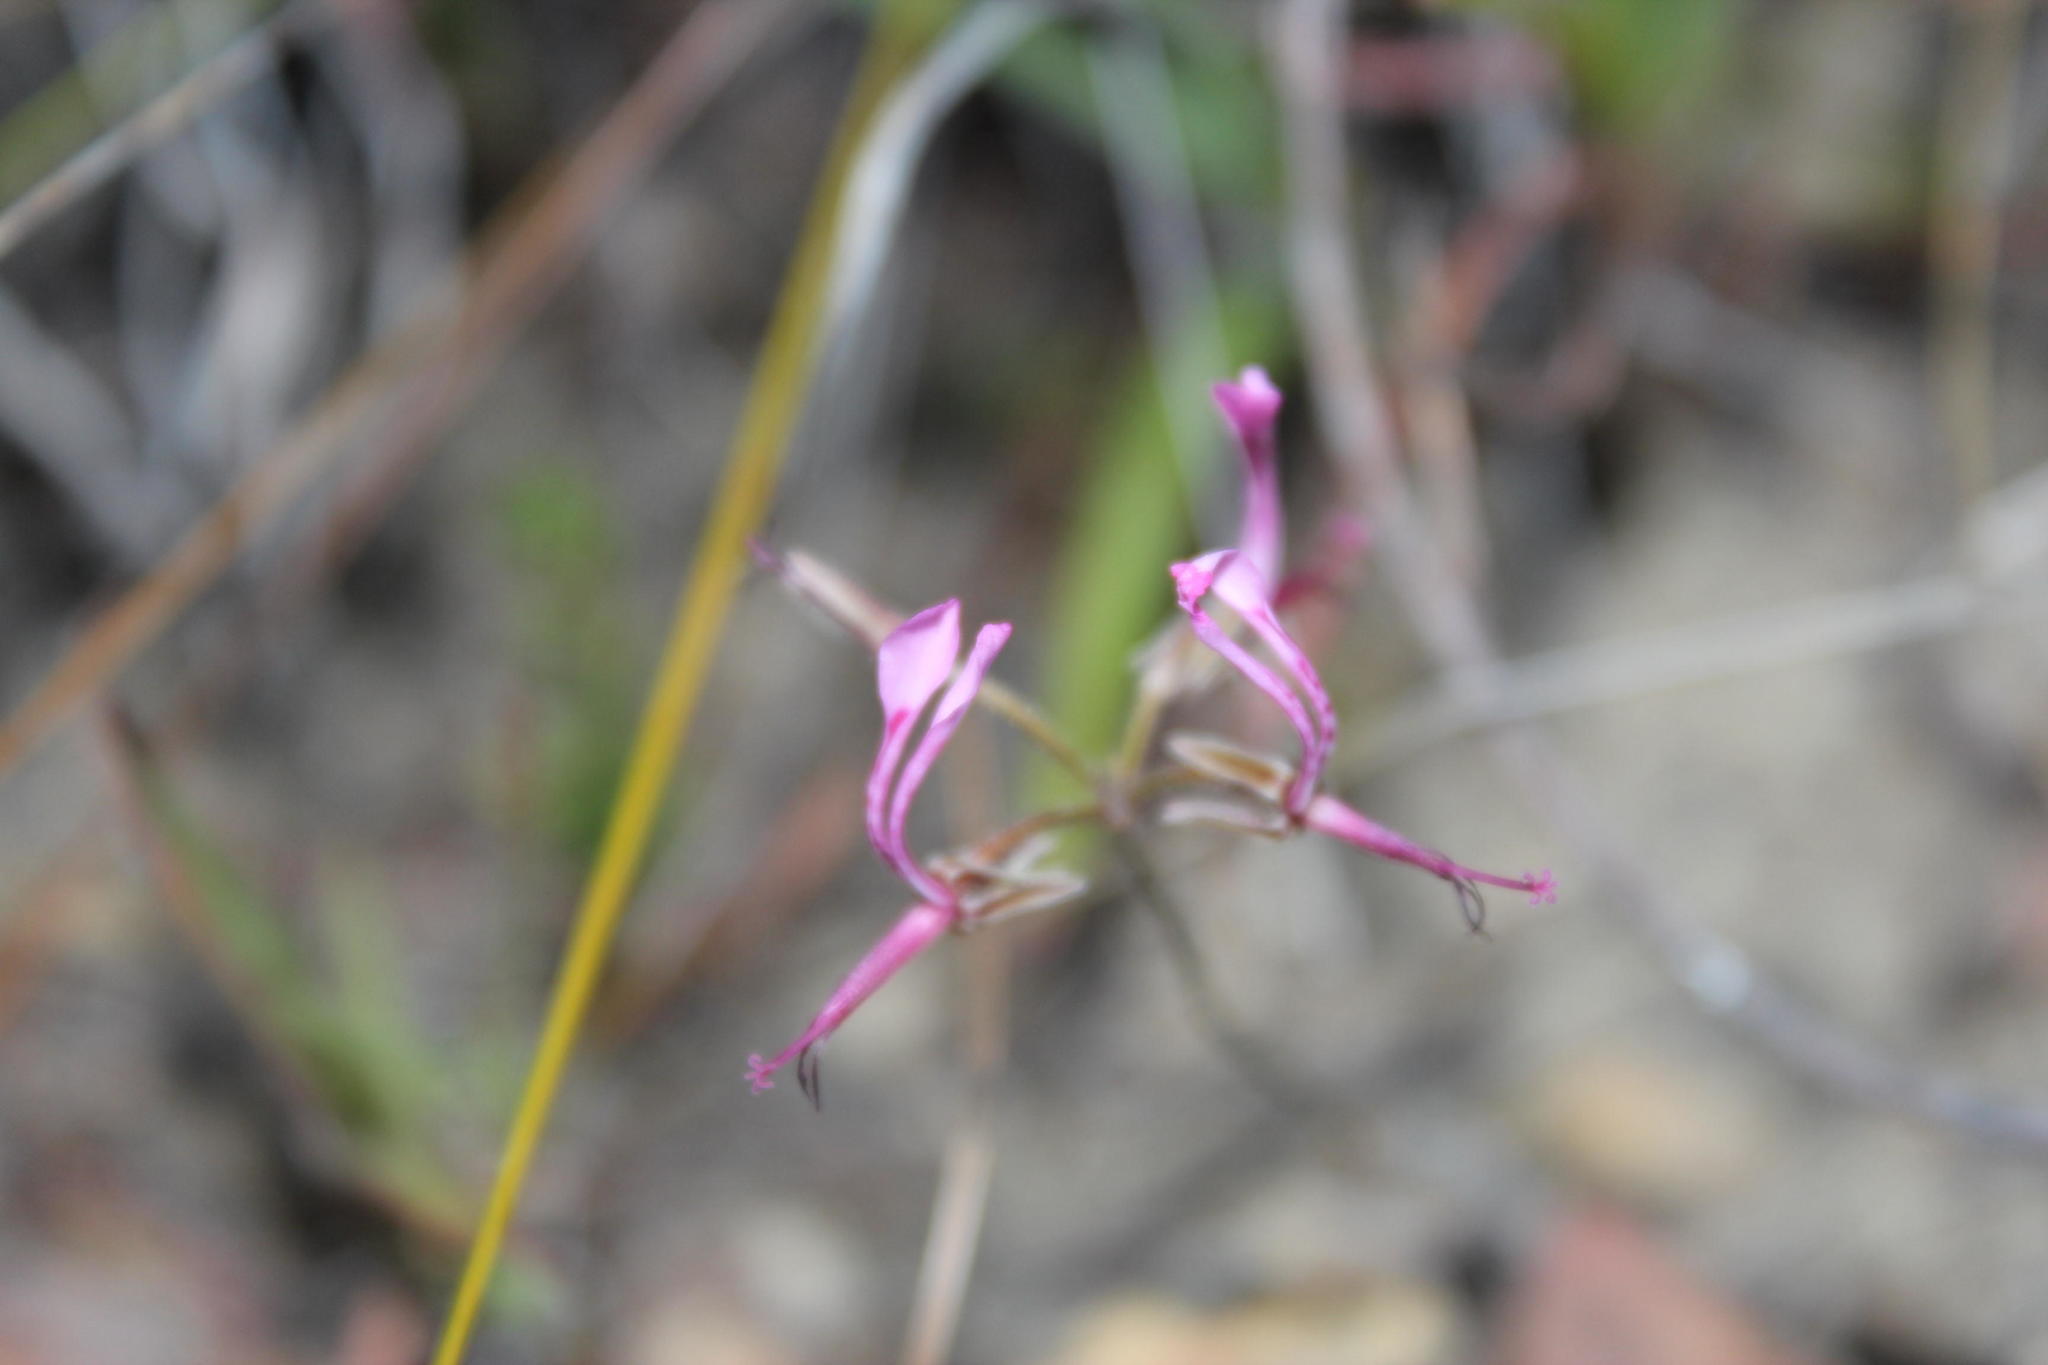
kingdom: Plantae
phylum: Tracheophyta
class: Magnoliopsida
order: Geraniales
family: Geraniaceae
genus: Pelargonium
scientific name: Pelargonium ternifolium
